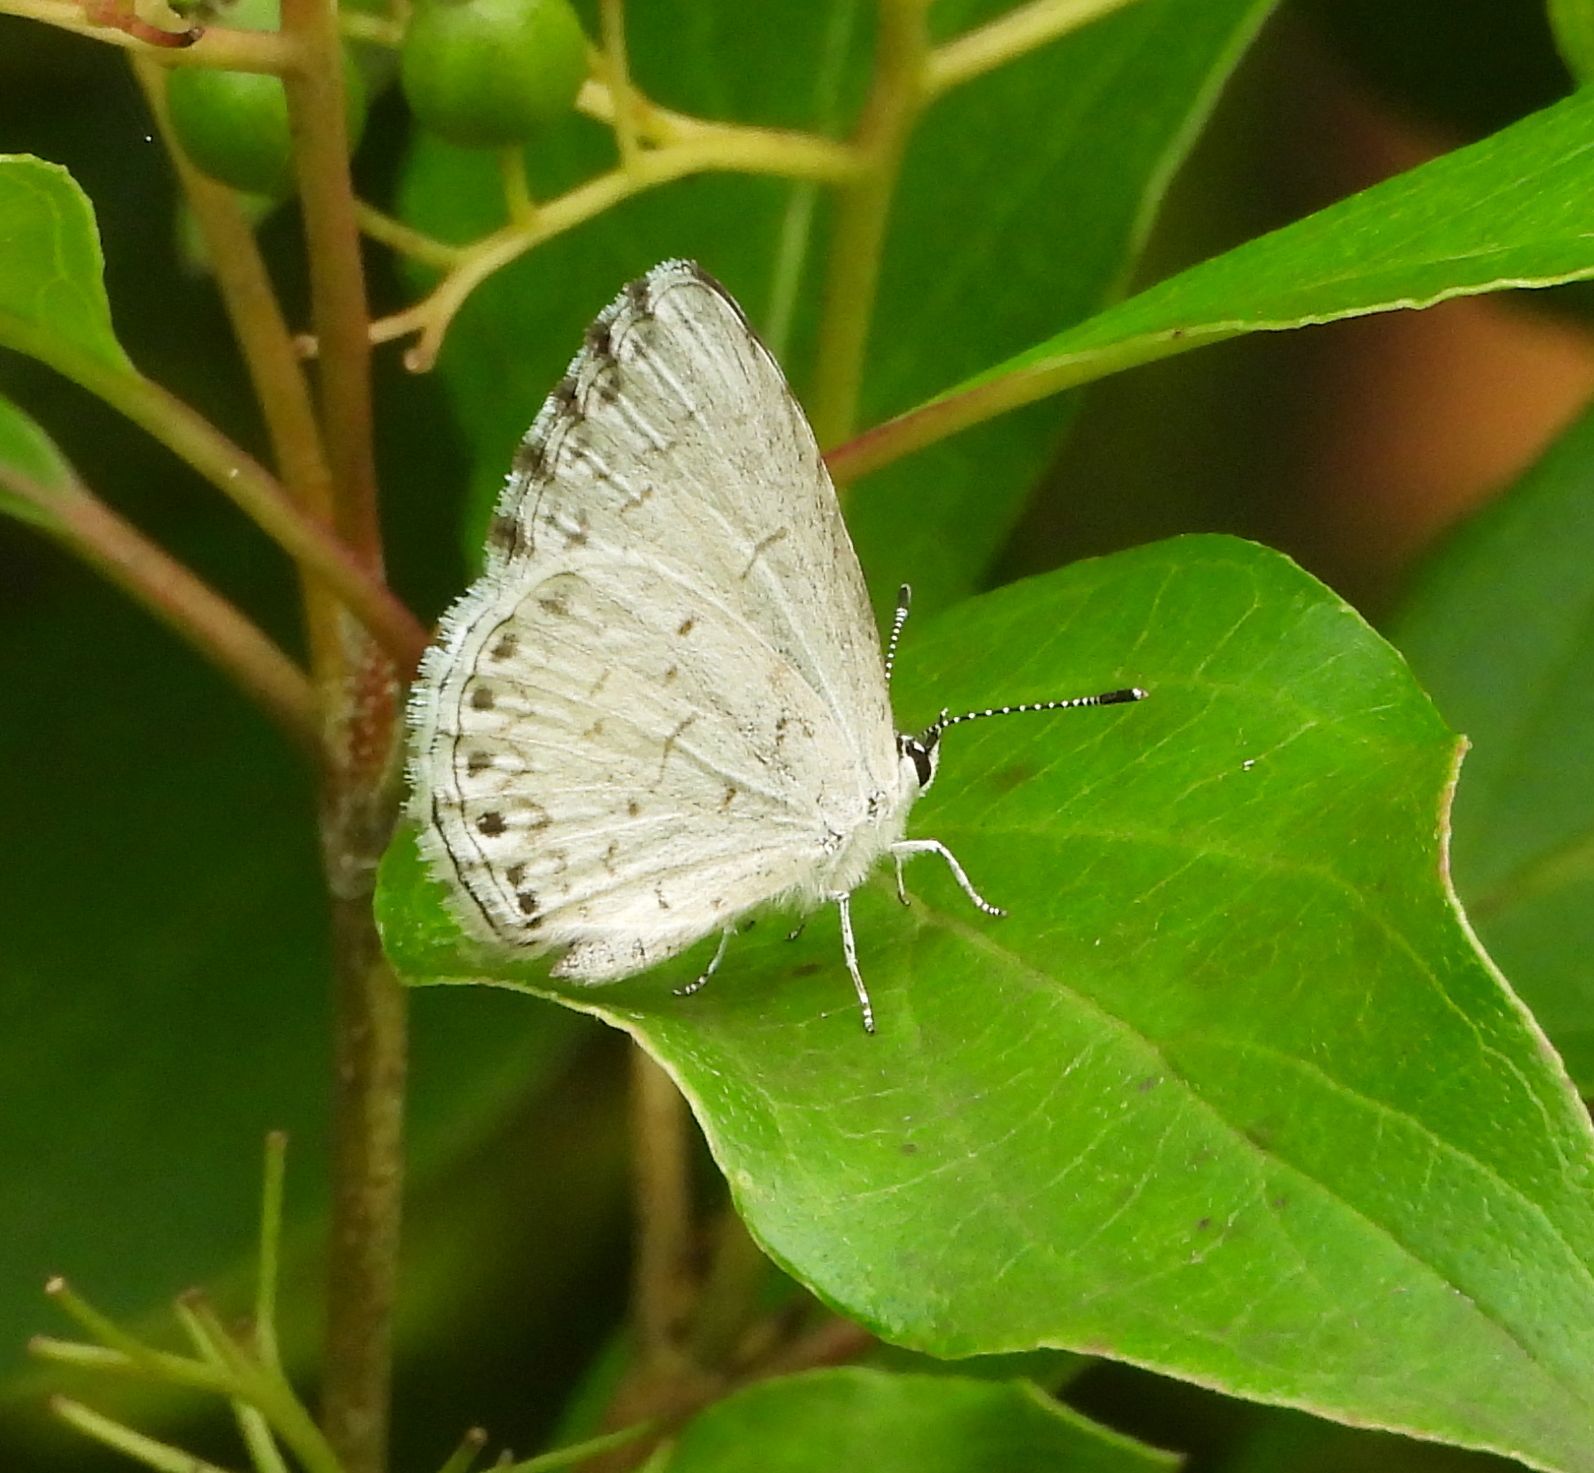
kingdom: Animalia
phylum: Arthropoda
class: Insecta
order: Lepidoptera
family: Lycaenidae
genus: Celastrina
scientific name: Celastrina lucia
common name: Lucia azure
